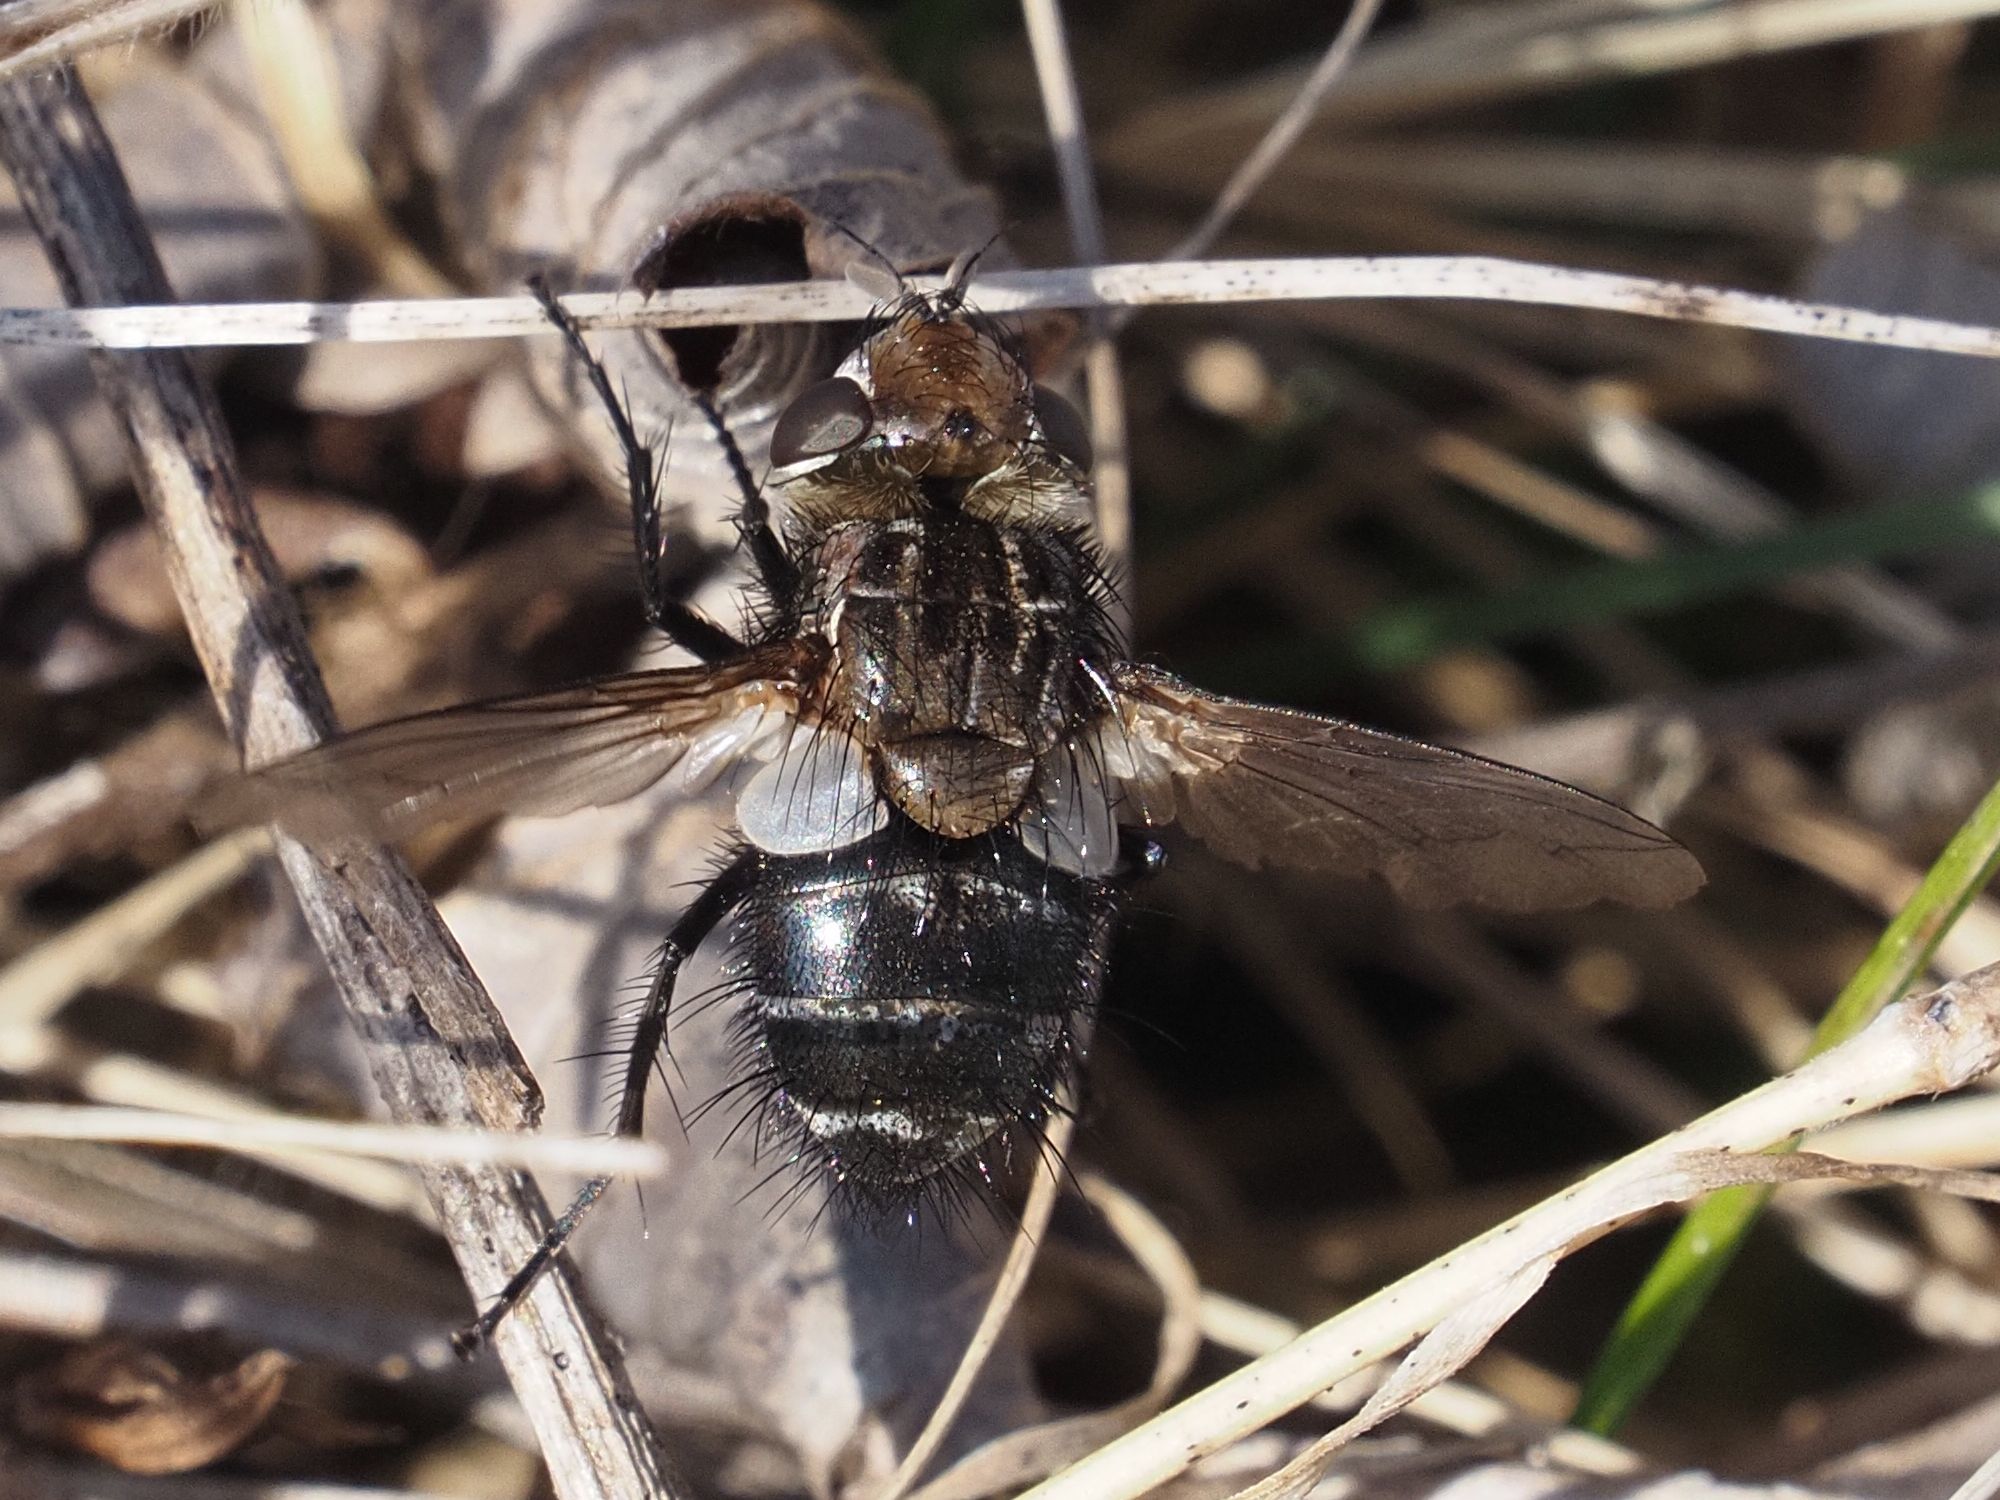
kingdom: Animalia
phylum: Arthropoda
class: Insecta
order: Diptera
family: Tachinidae
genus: Gonia
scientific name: Gonia picea
